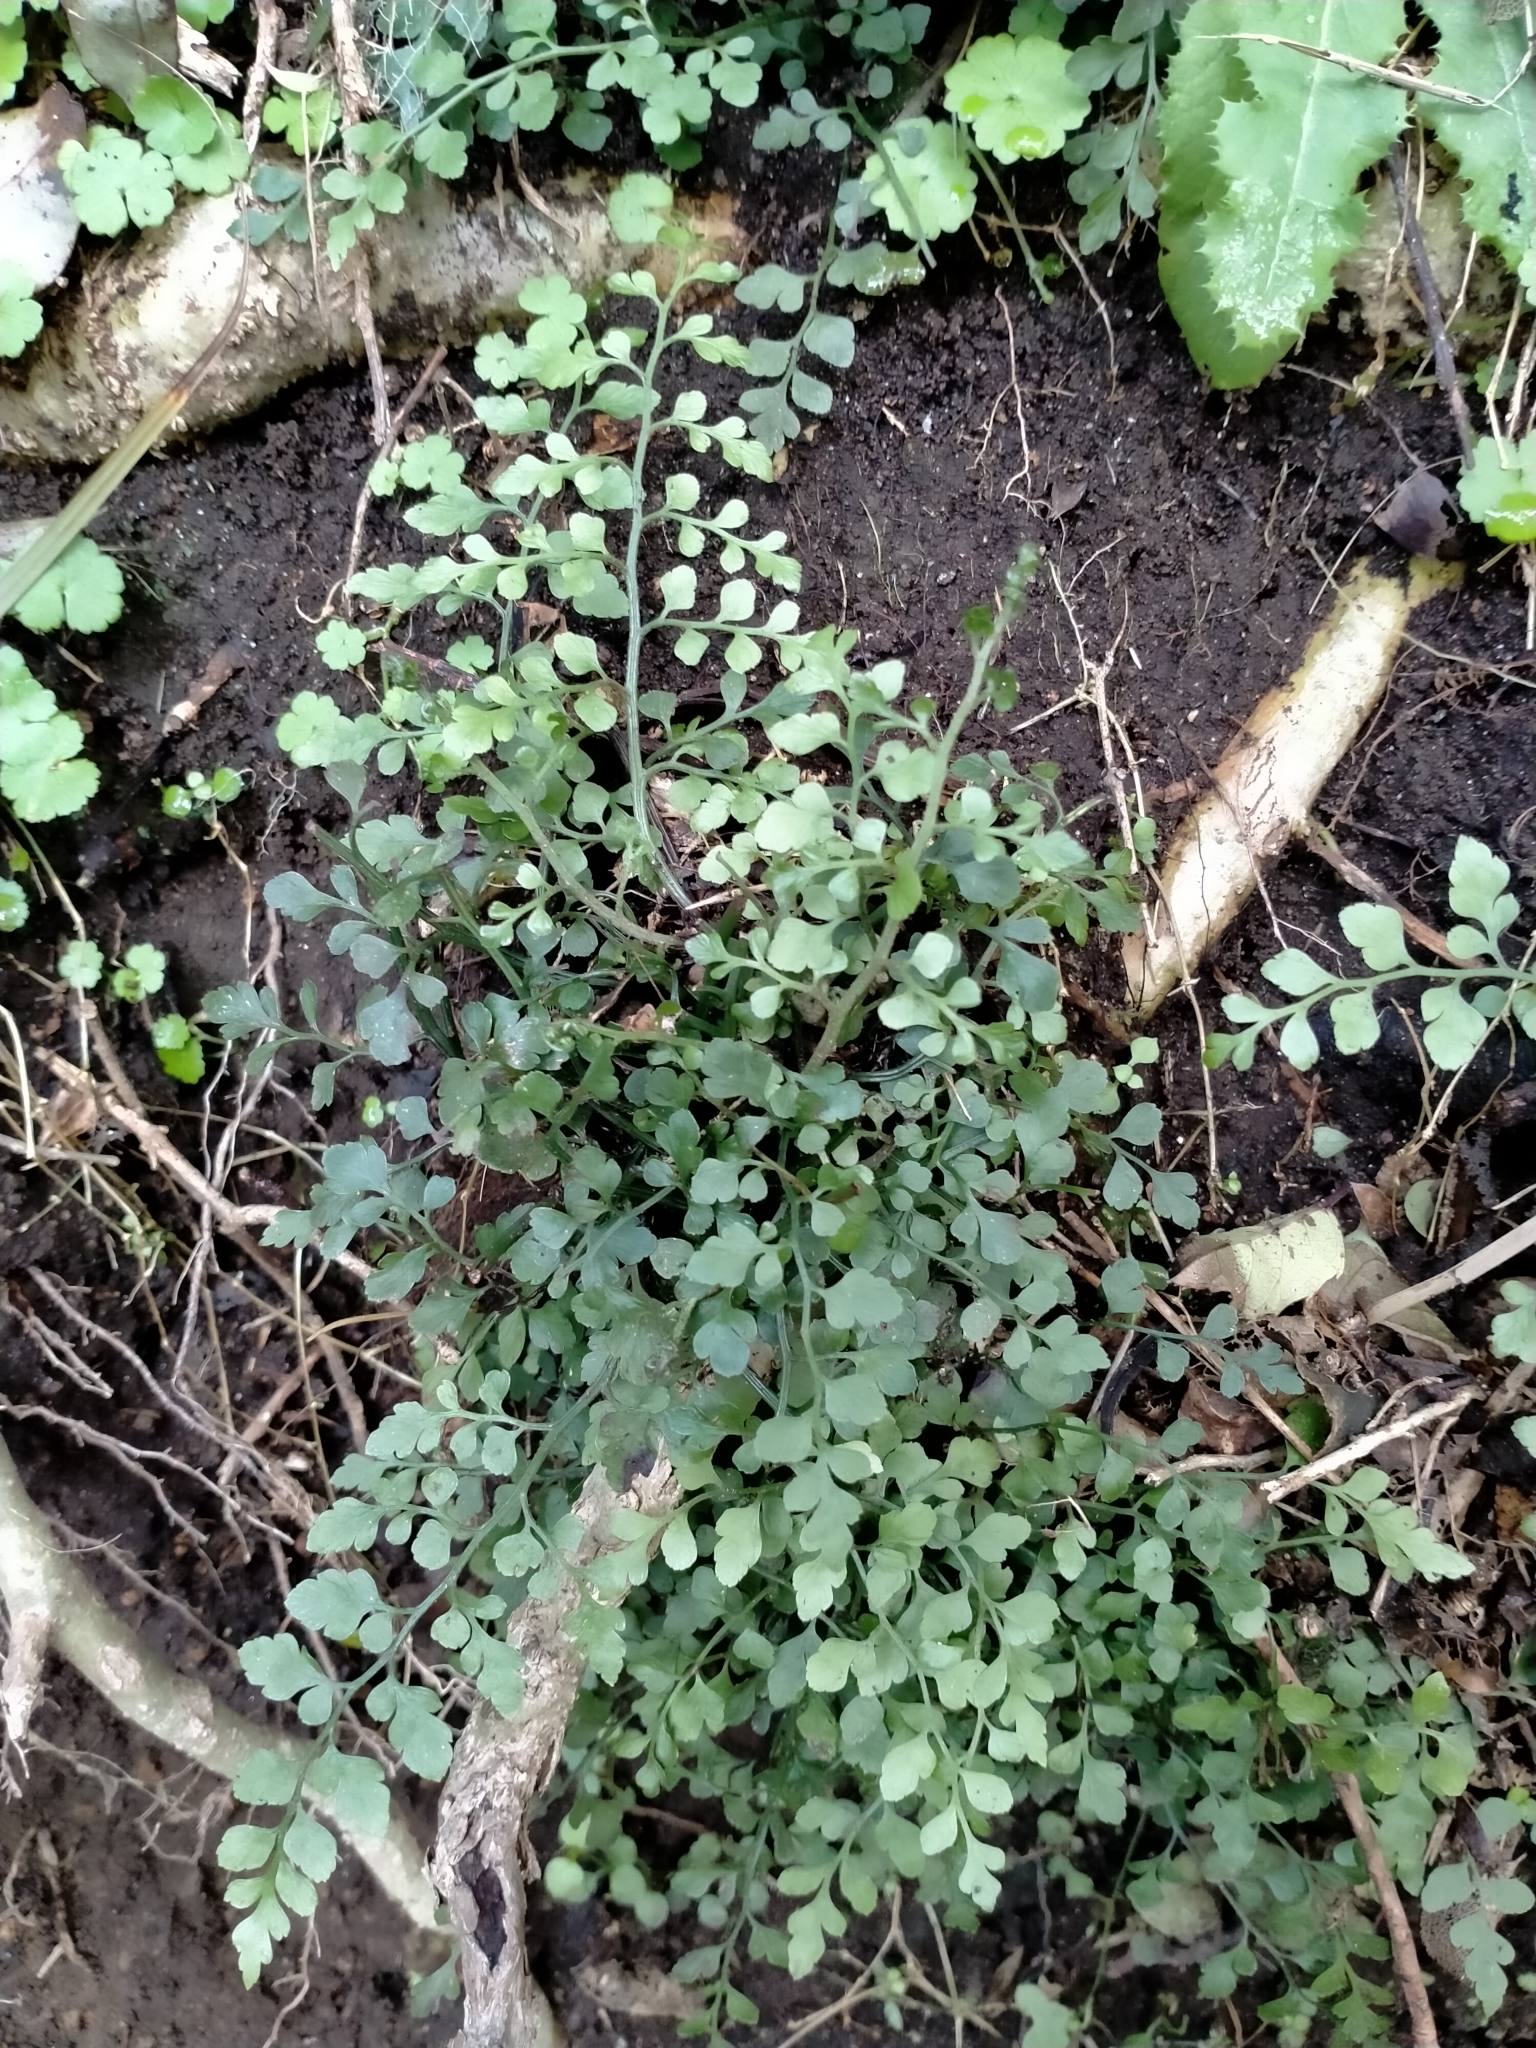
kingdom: Plantae
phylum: Tracheophyta
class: Polypodiopsida
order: Polypodiales
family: Aspleniaceae
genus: Asplenium
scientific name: Asplenium hookerianum
